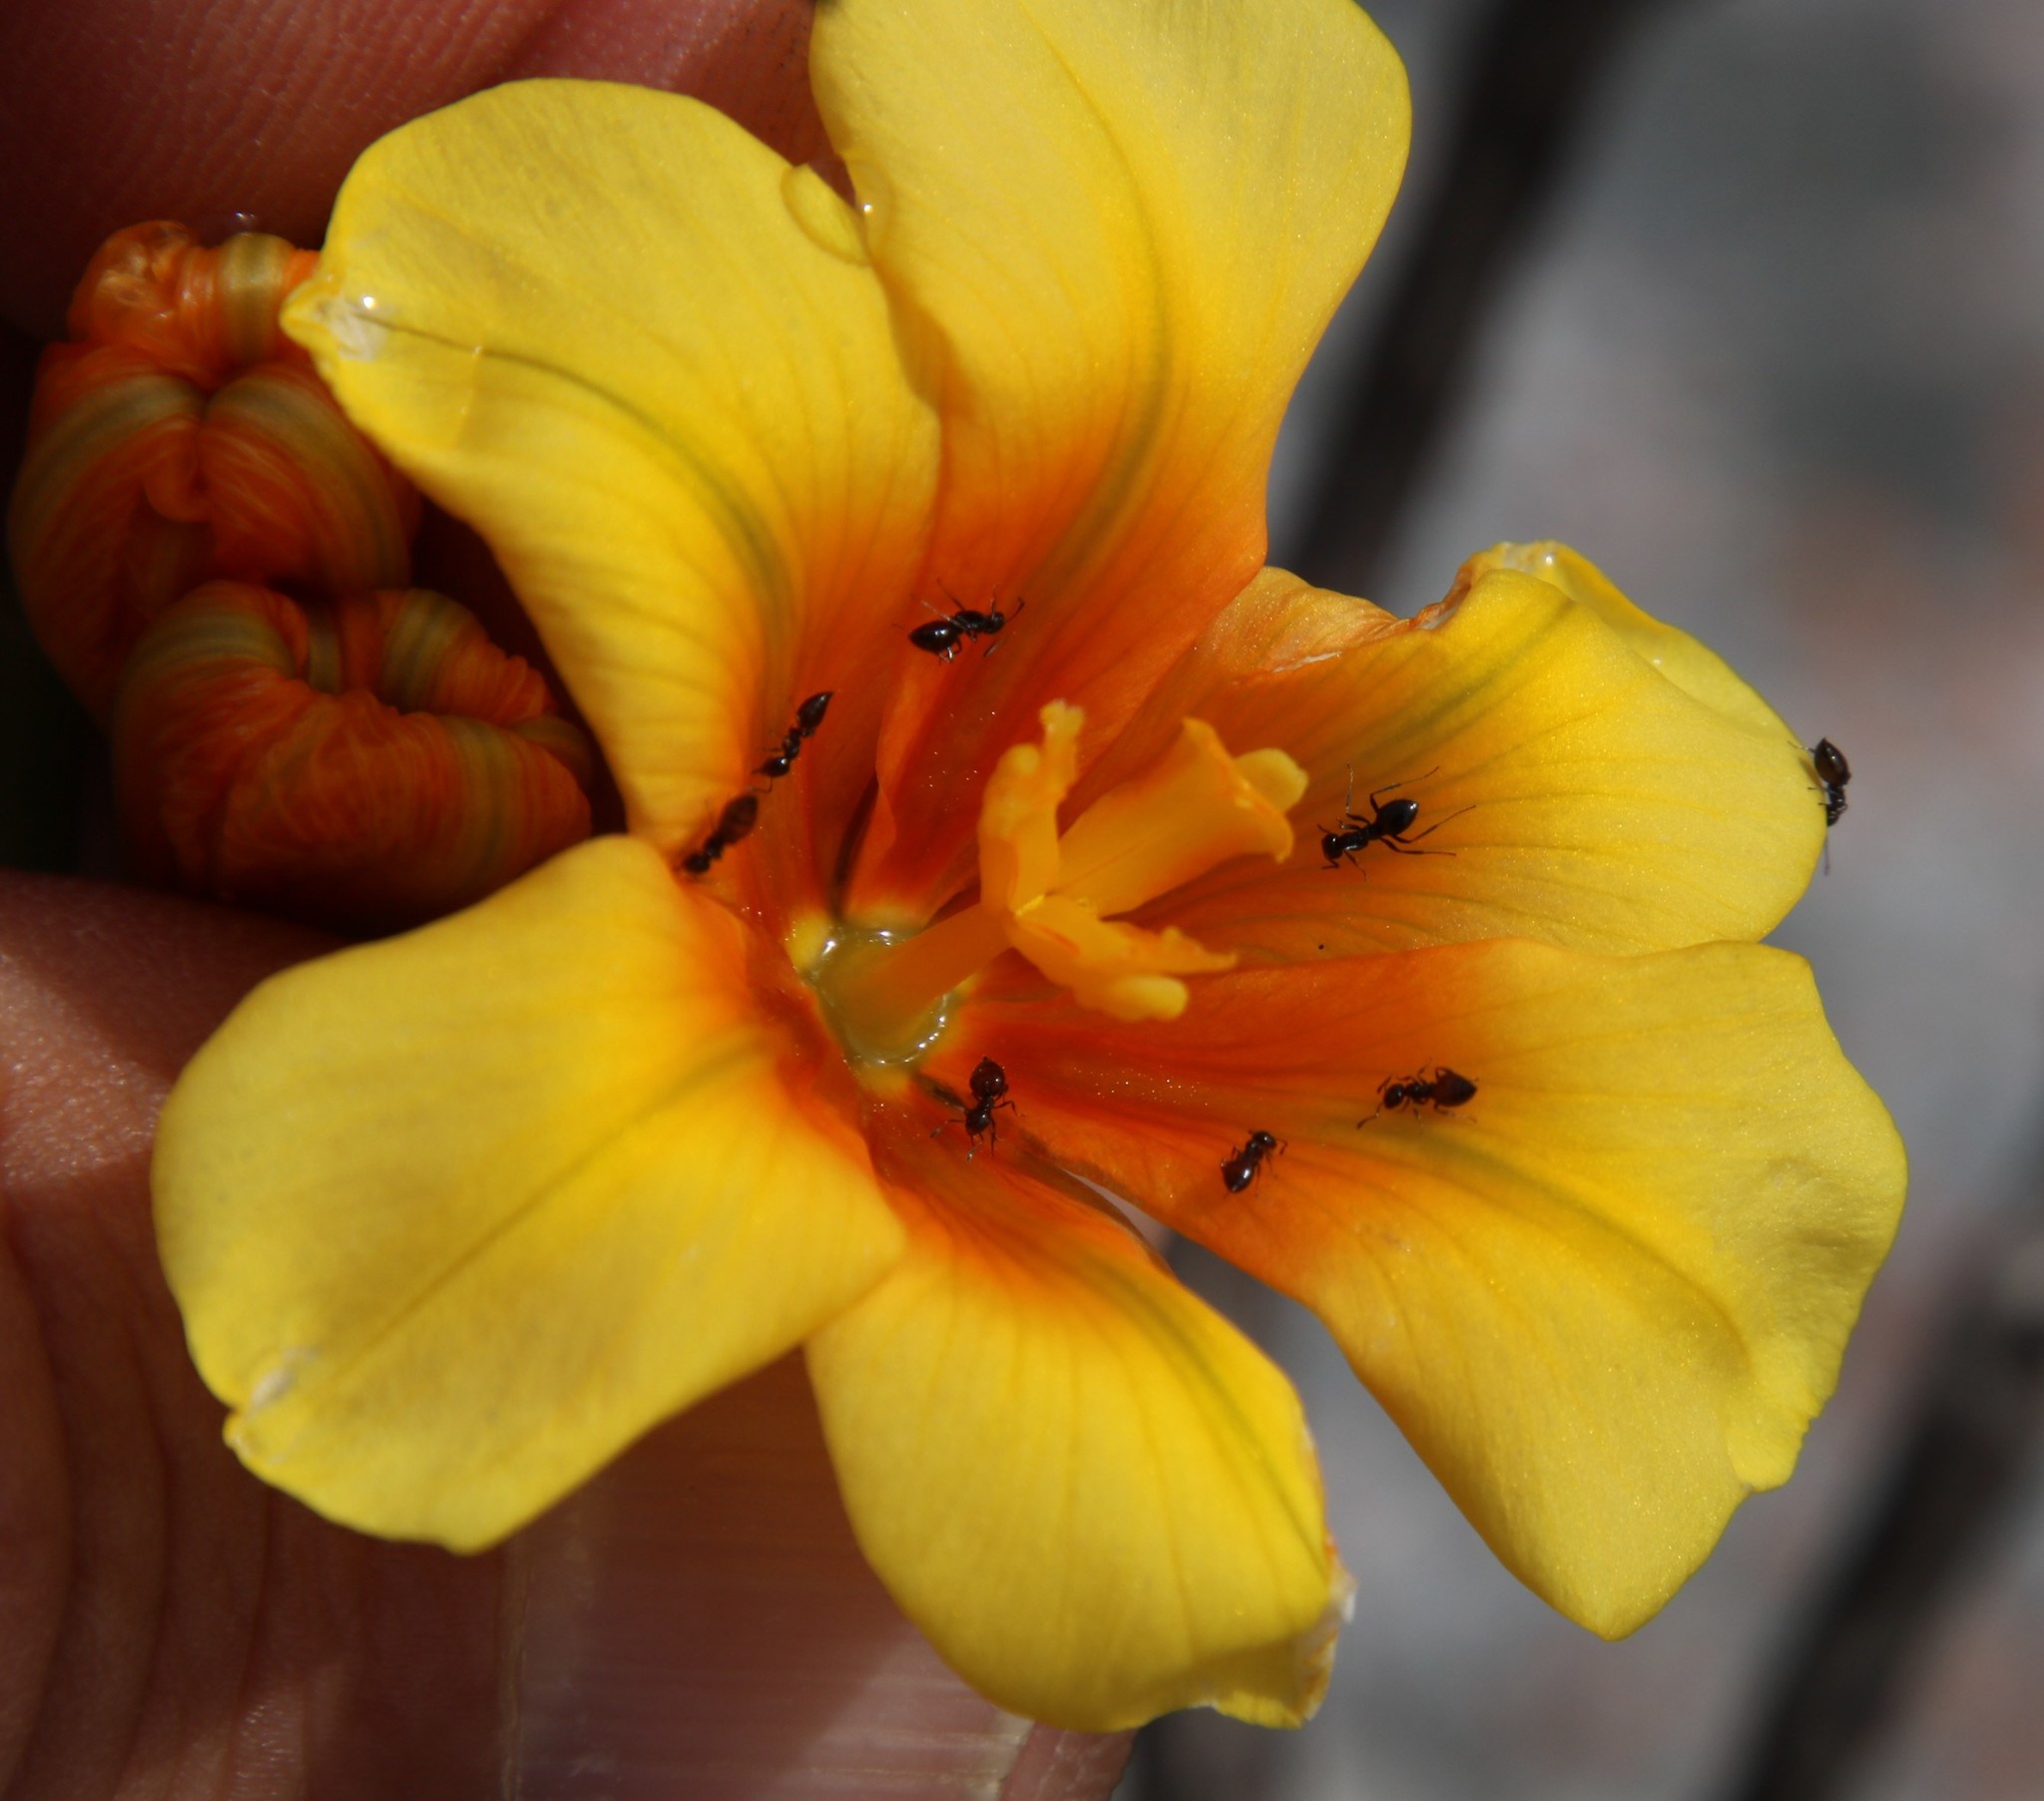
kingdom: Plantae
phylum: Tracheophyta
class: Liliopsida
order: Asparagales
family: Iridaceae
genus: Moraea
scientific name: Moraea ochroleuca
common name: Red tulp
